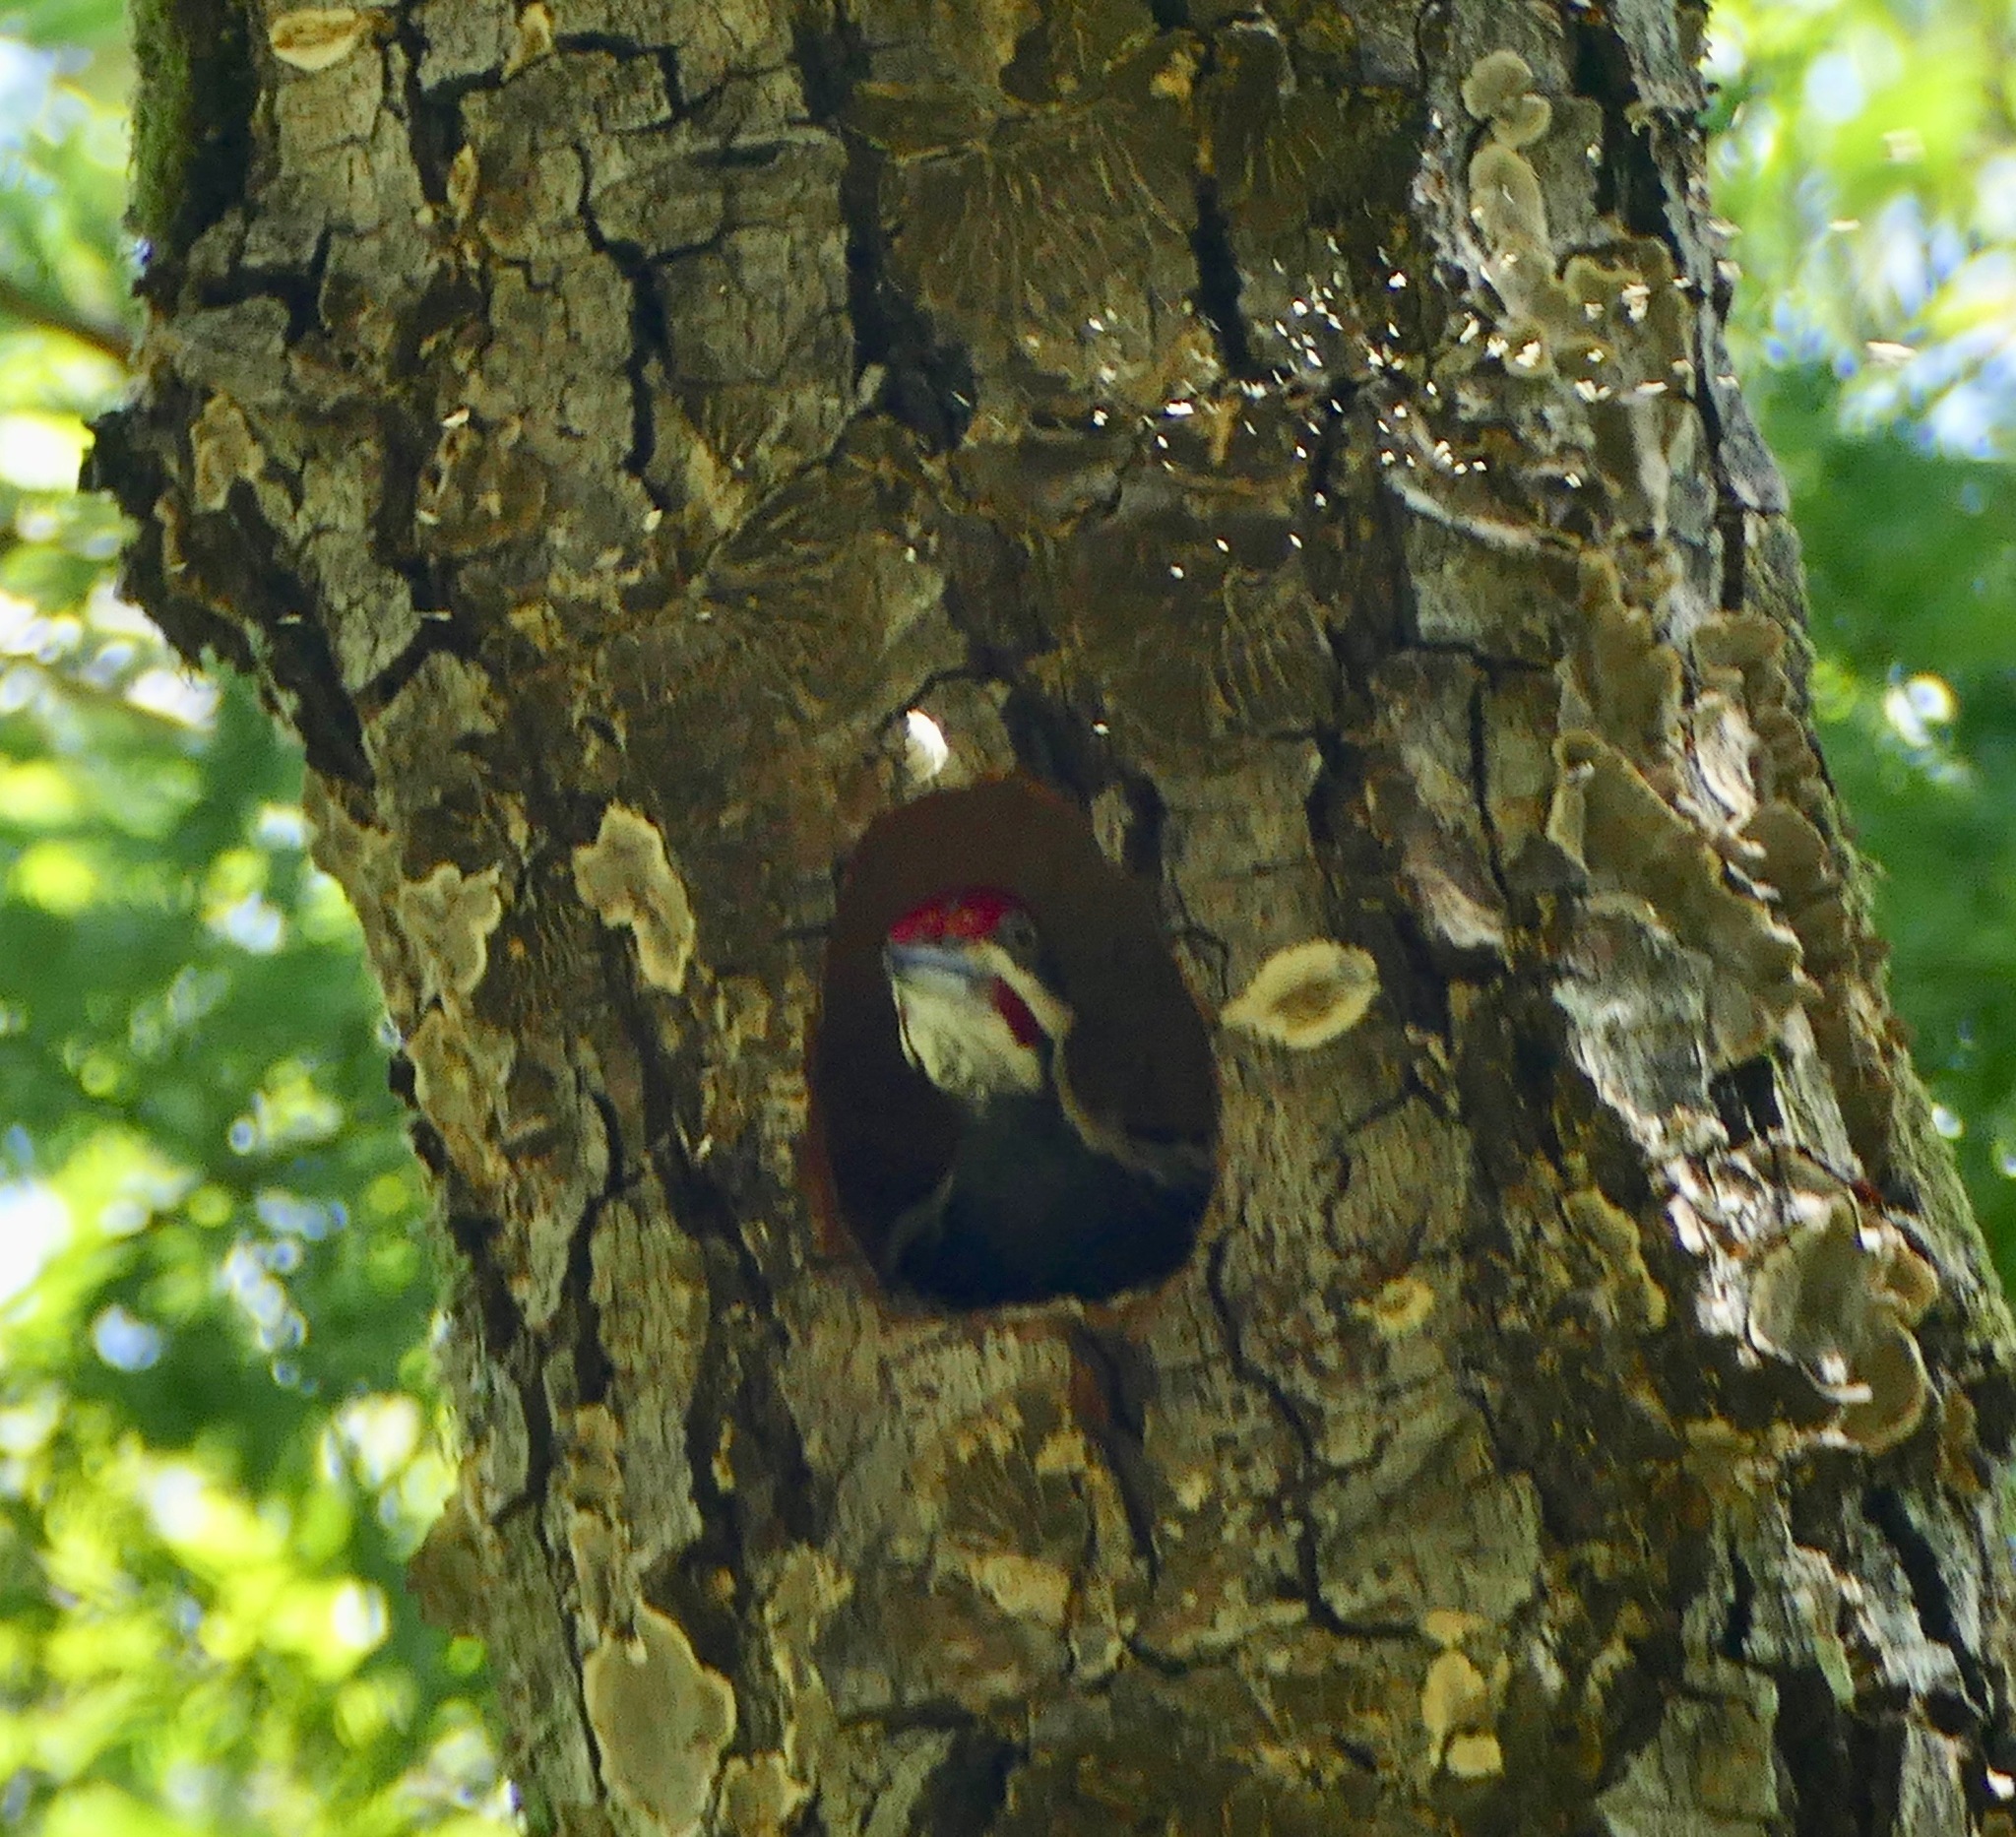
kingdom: Animalia
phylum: Chordata
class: Aves
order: Piciformes
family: Picidae
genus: Dryocopus
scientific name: Dryocopus pileatus
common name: Pileated woodpecker
